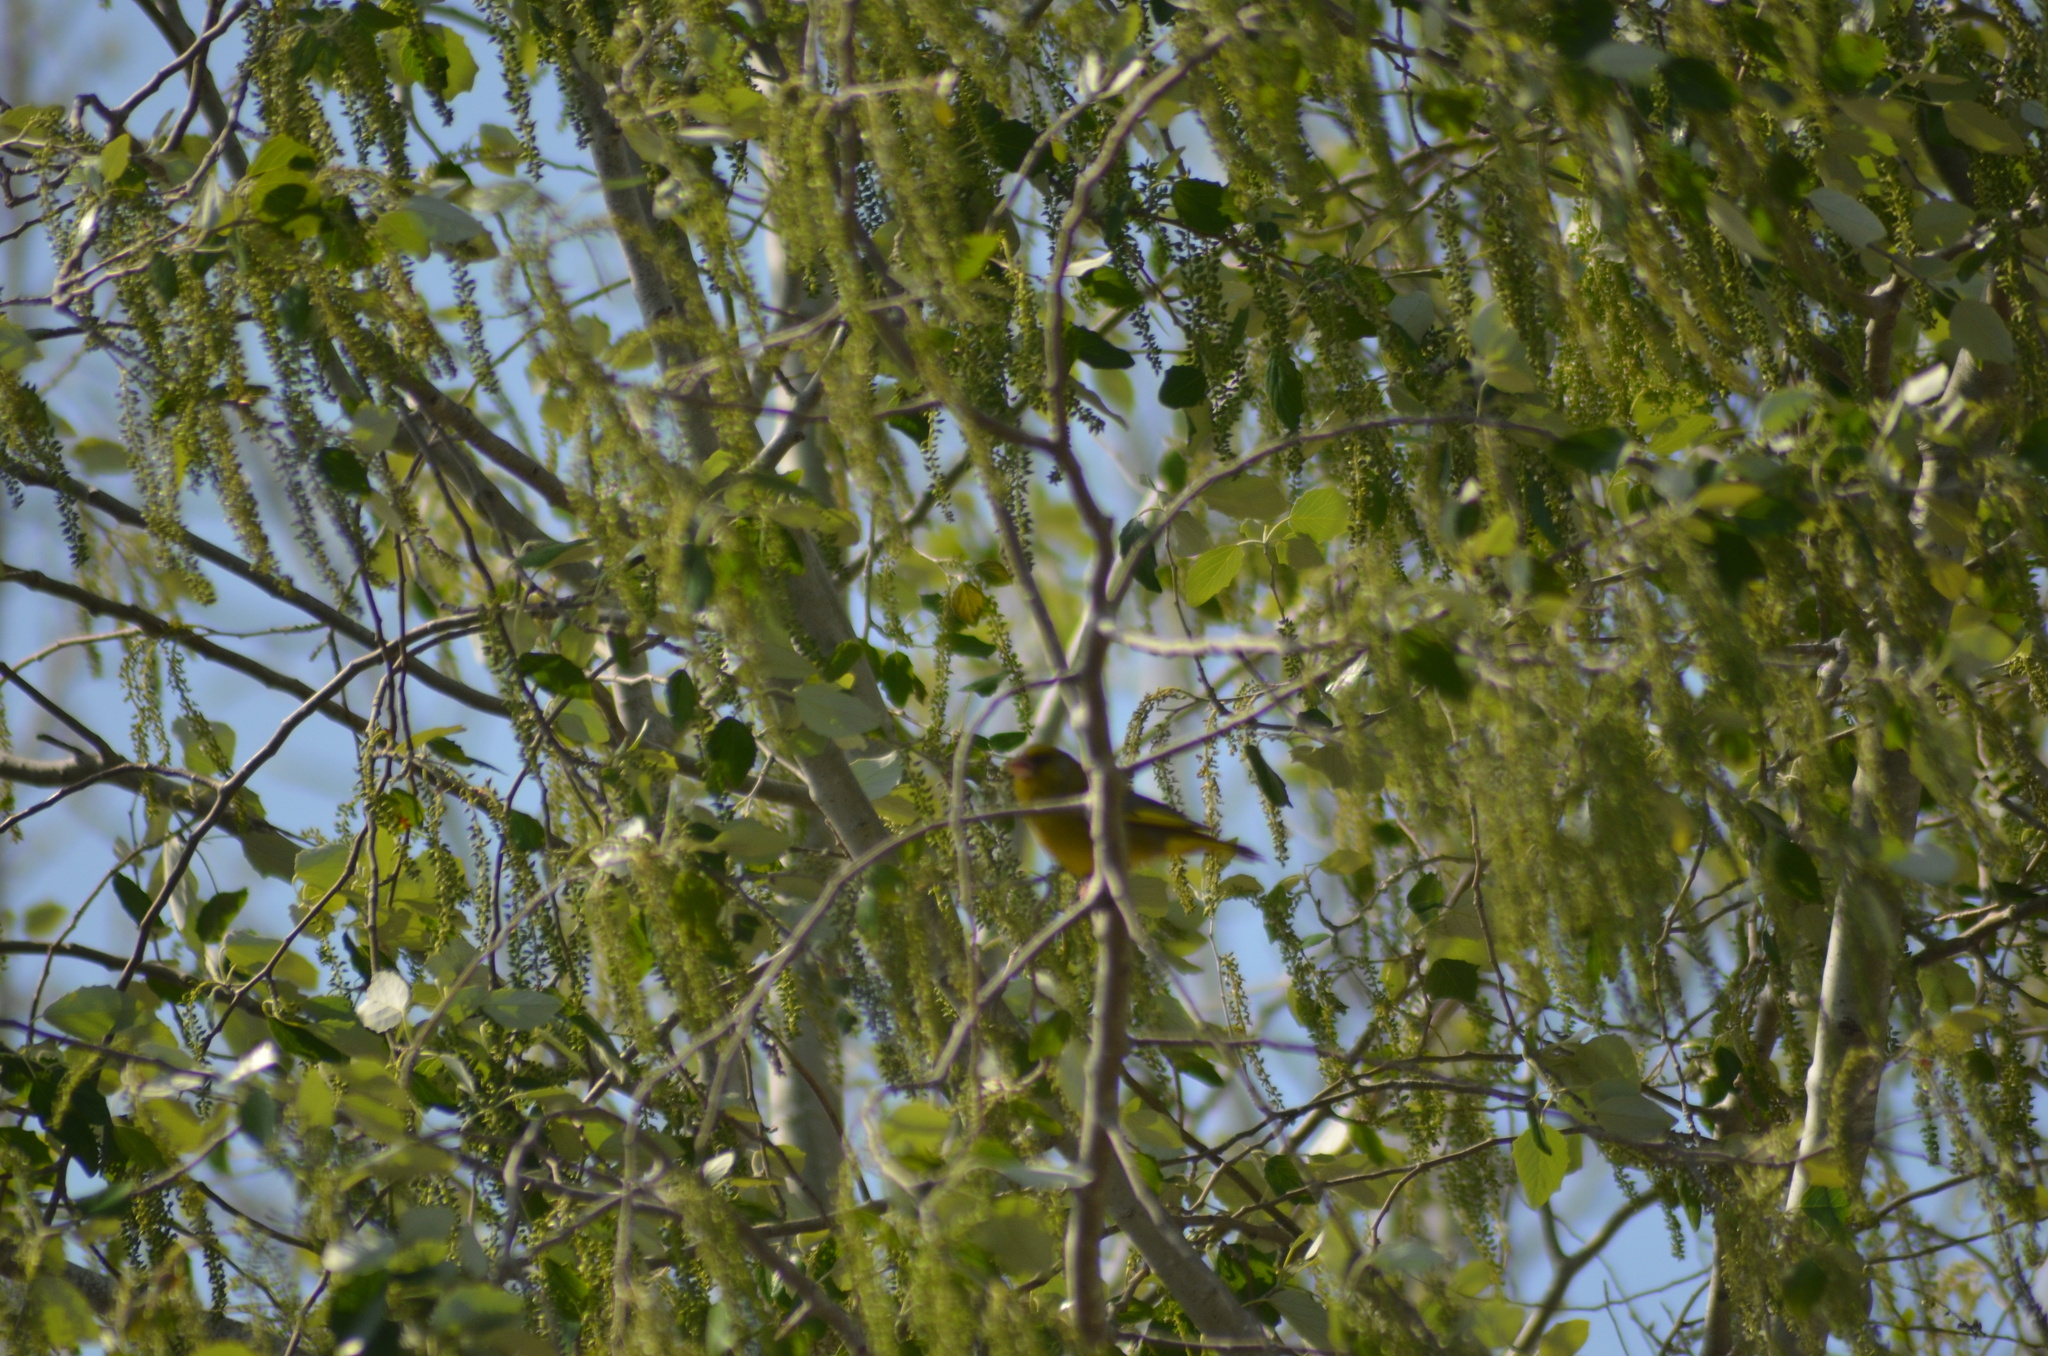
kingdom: Plantae
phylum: Tracheophyta
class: Liliopsida
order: Poales
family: Poaceae
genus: Chloris
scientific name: Chloris chloris
